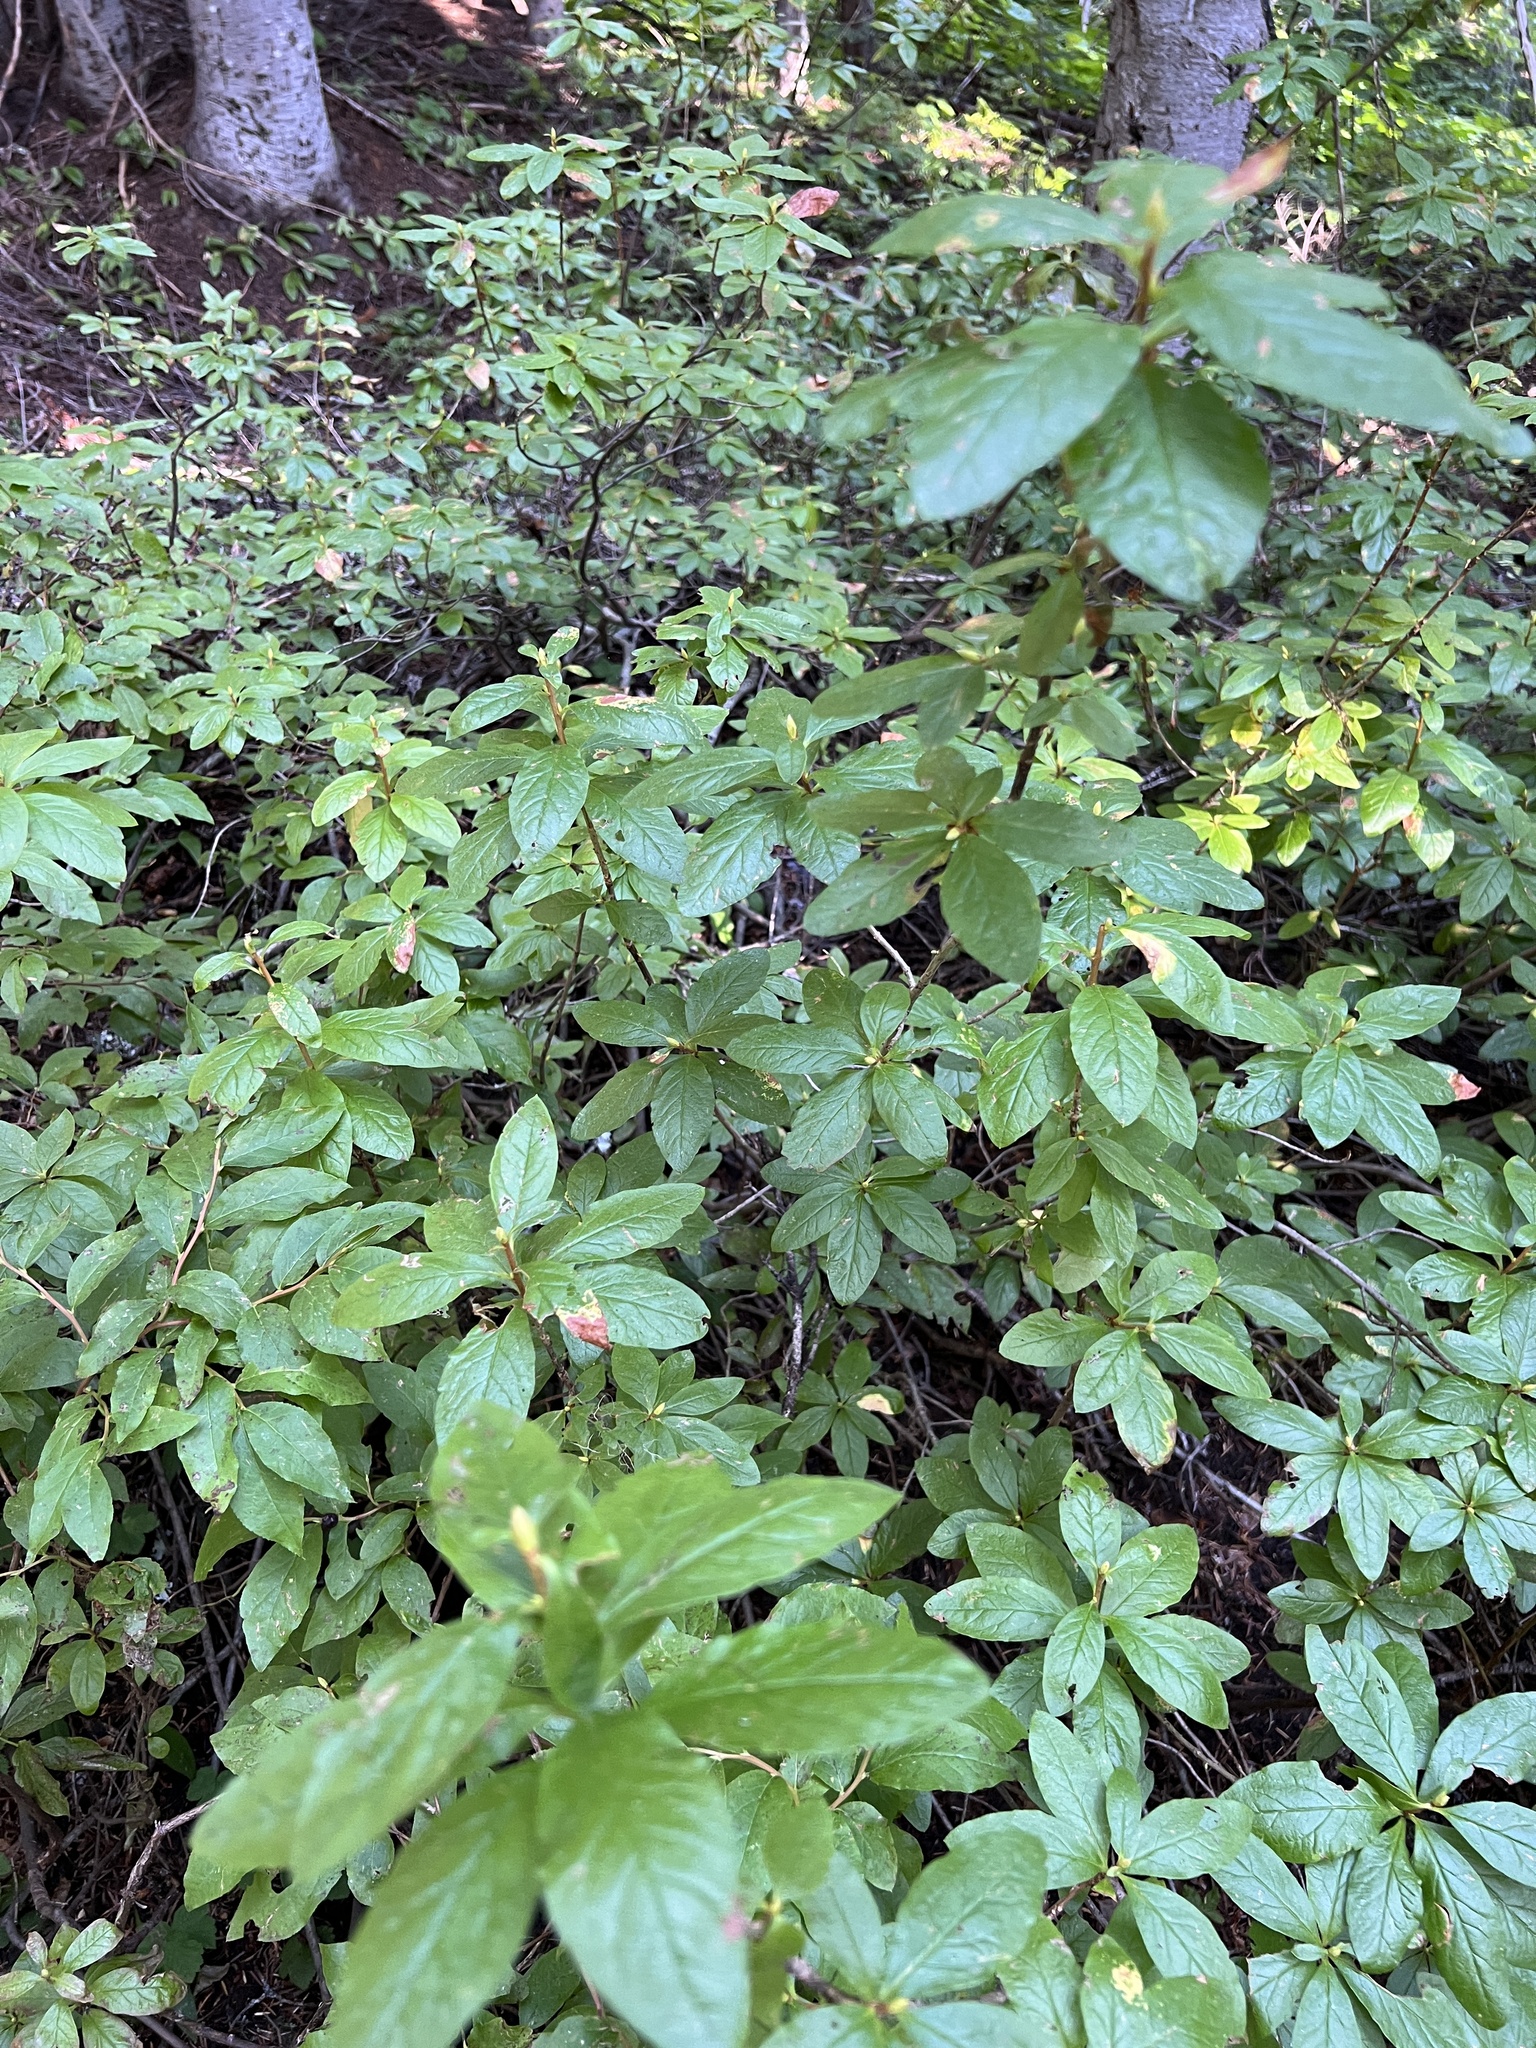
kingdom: Plantae
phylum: Tracheophyta
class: Magnoliopsida
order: Ericales
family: Ericaceae
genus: Rhododendron
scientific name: Rhododendron albiflorum
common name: White rhododendron
